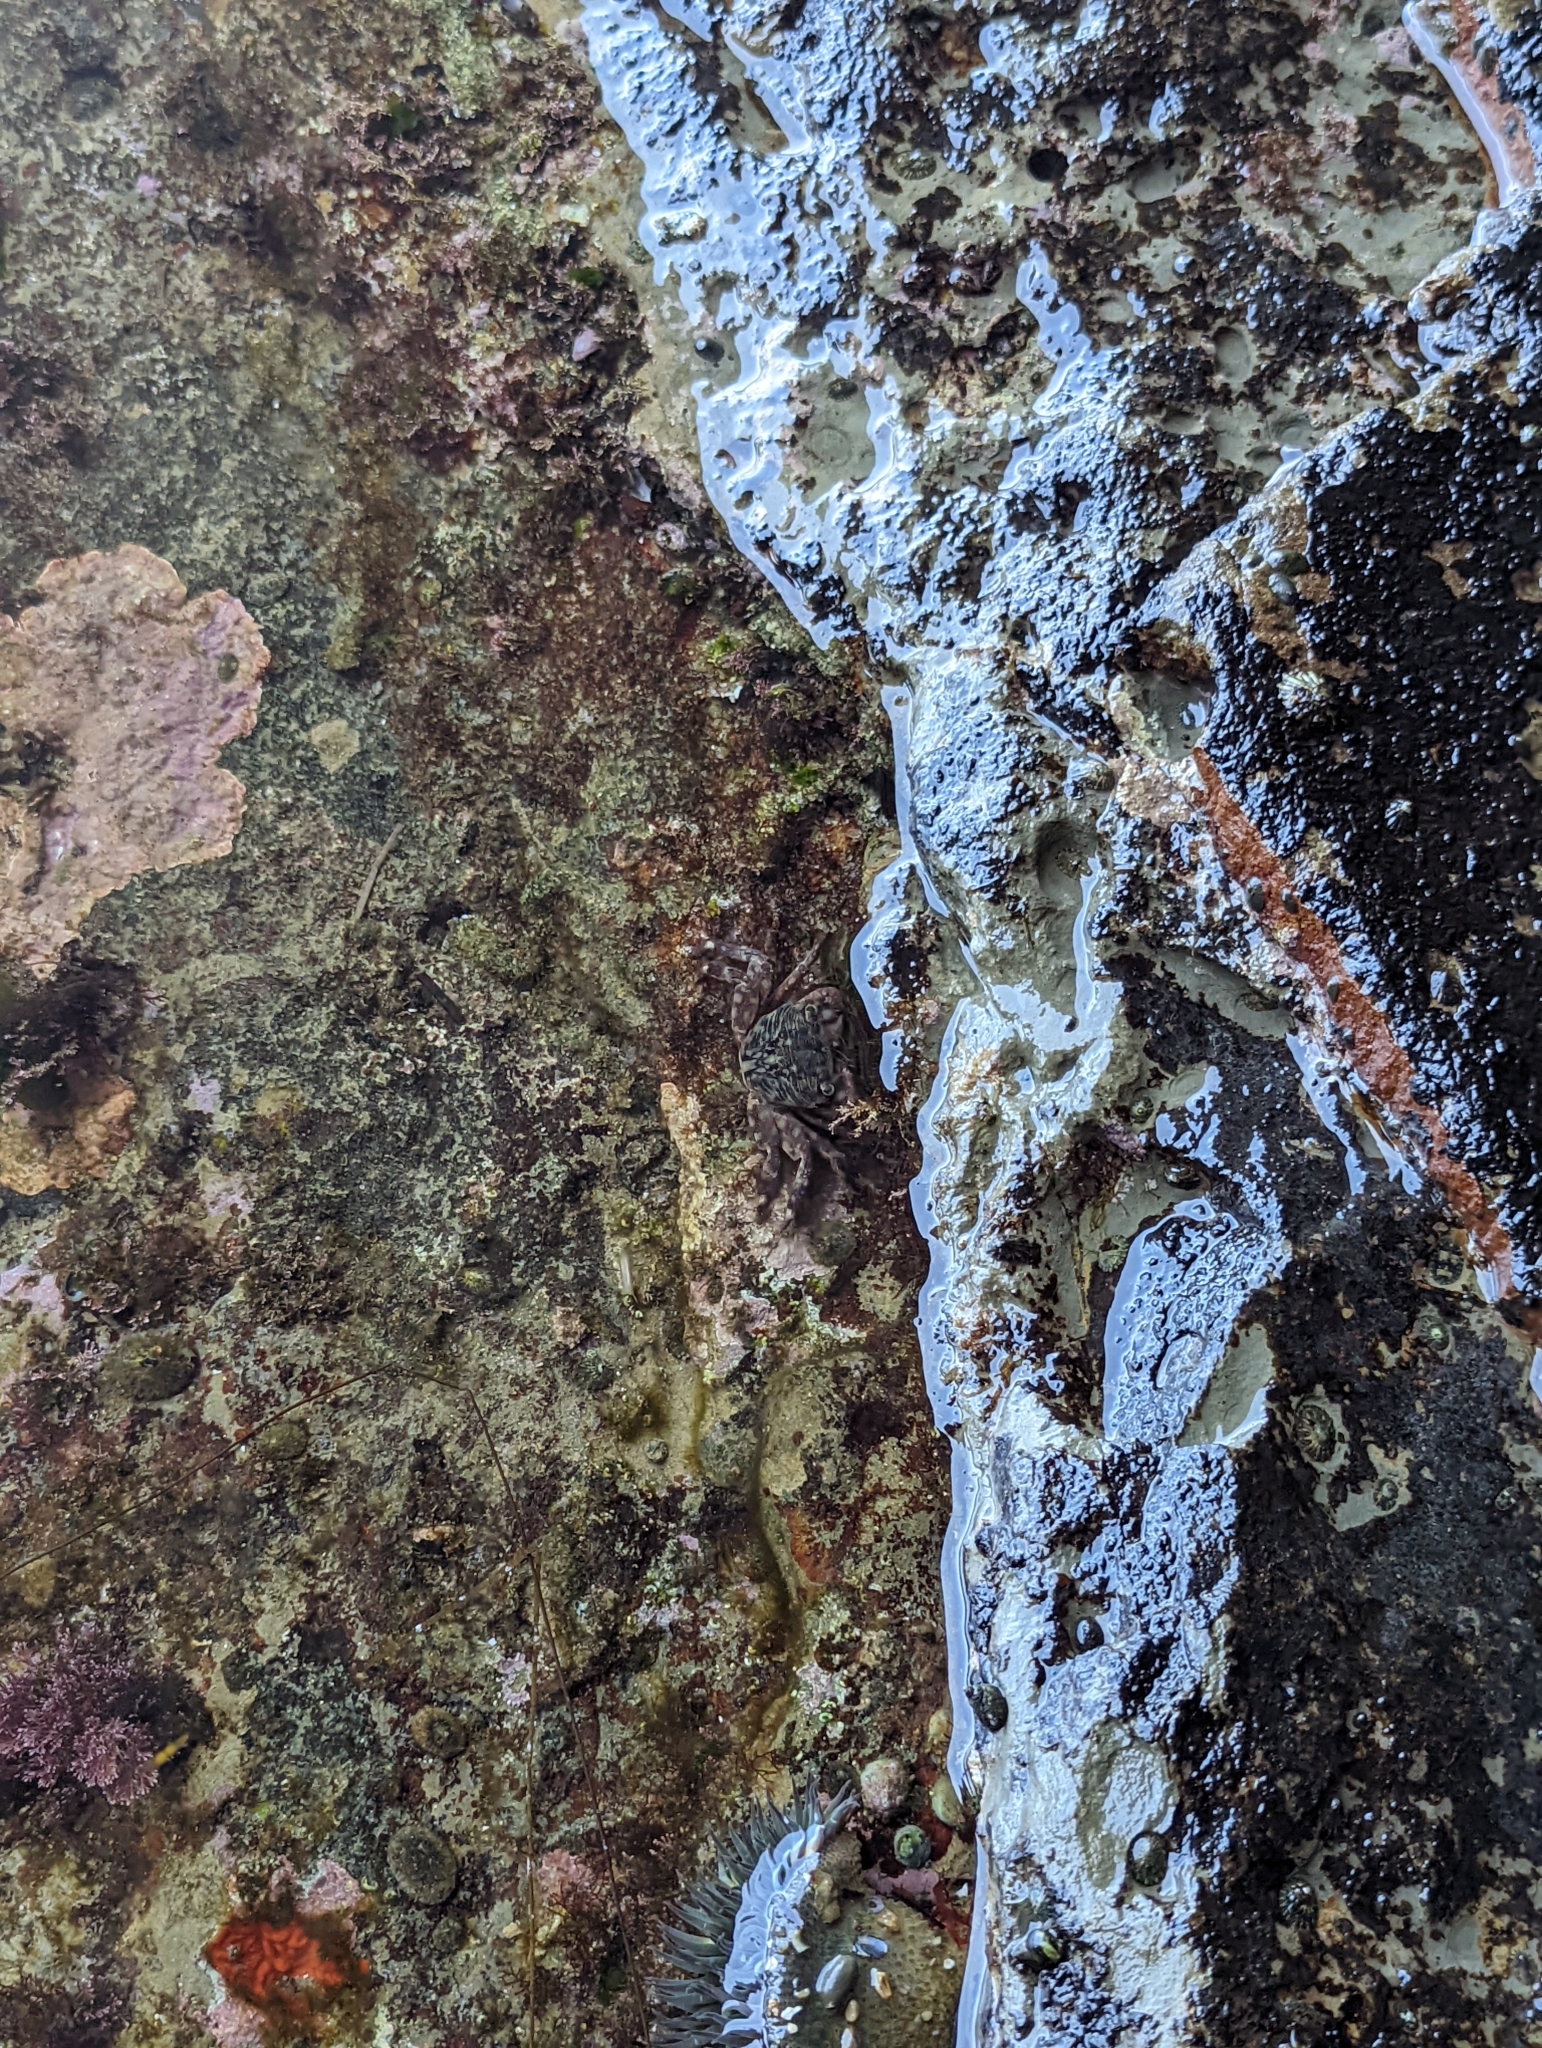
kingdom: Animalia
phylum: Cnidaria
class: Anthozoa
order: Actiniaria
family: Actiniidae
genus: Anthopleura
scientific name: Anthopleura sola
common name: Sun anemone
